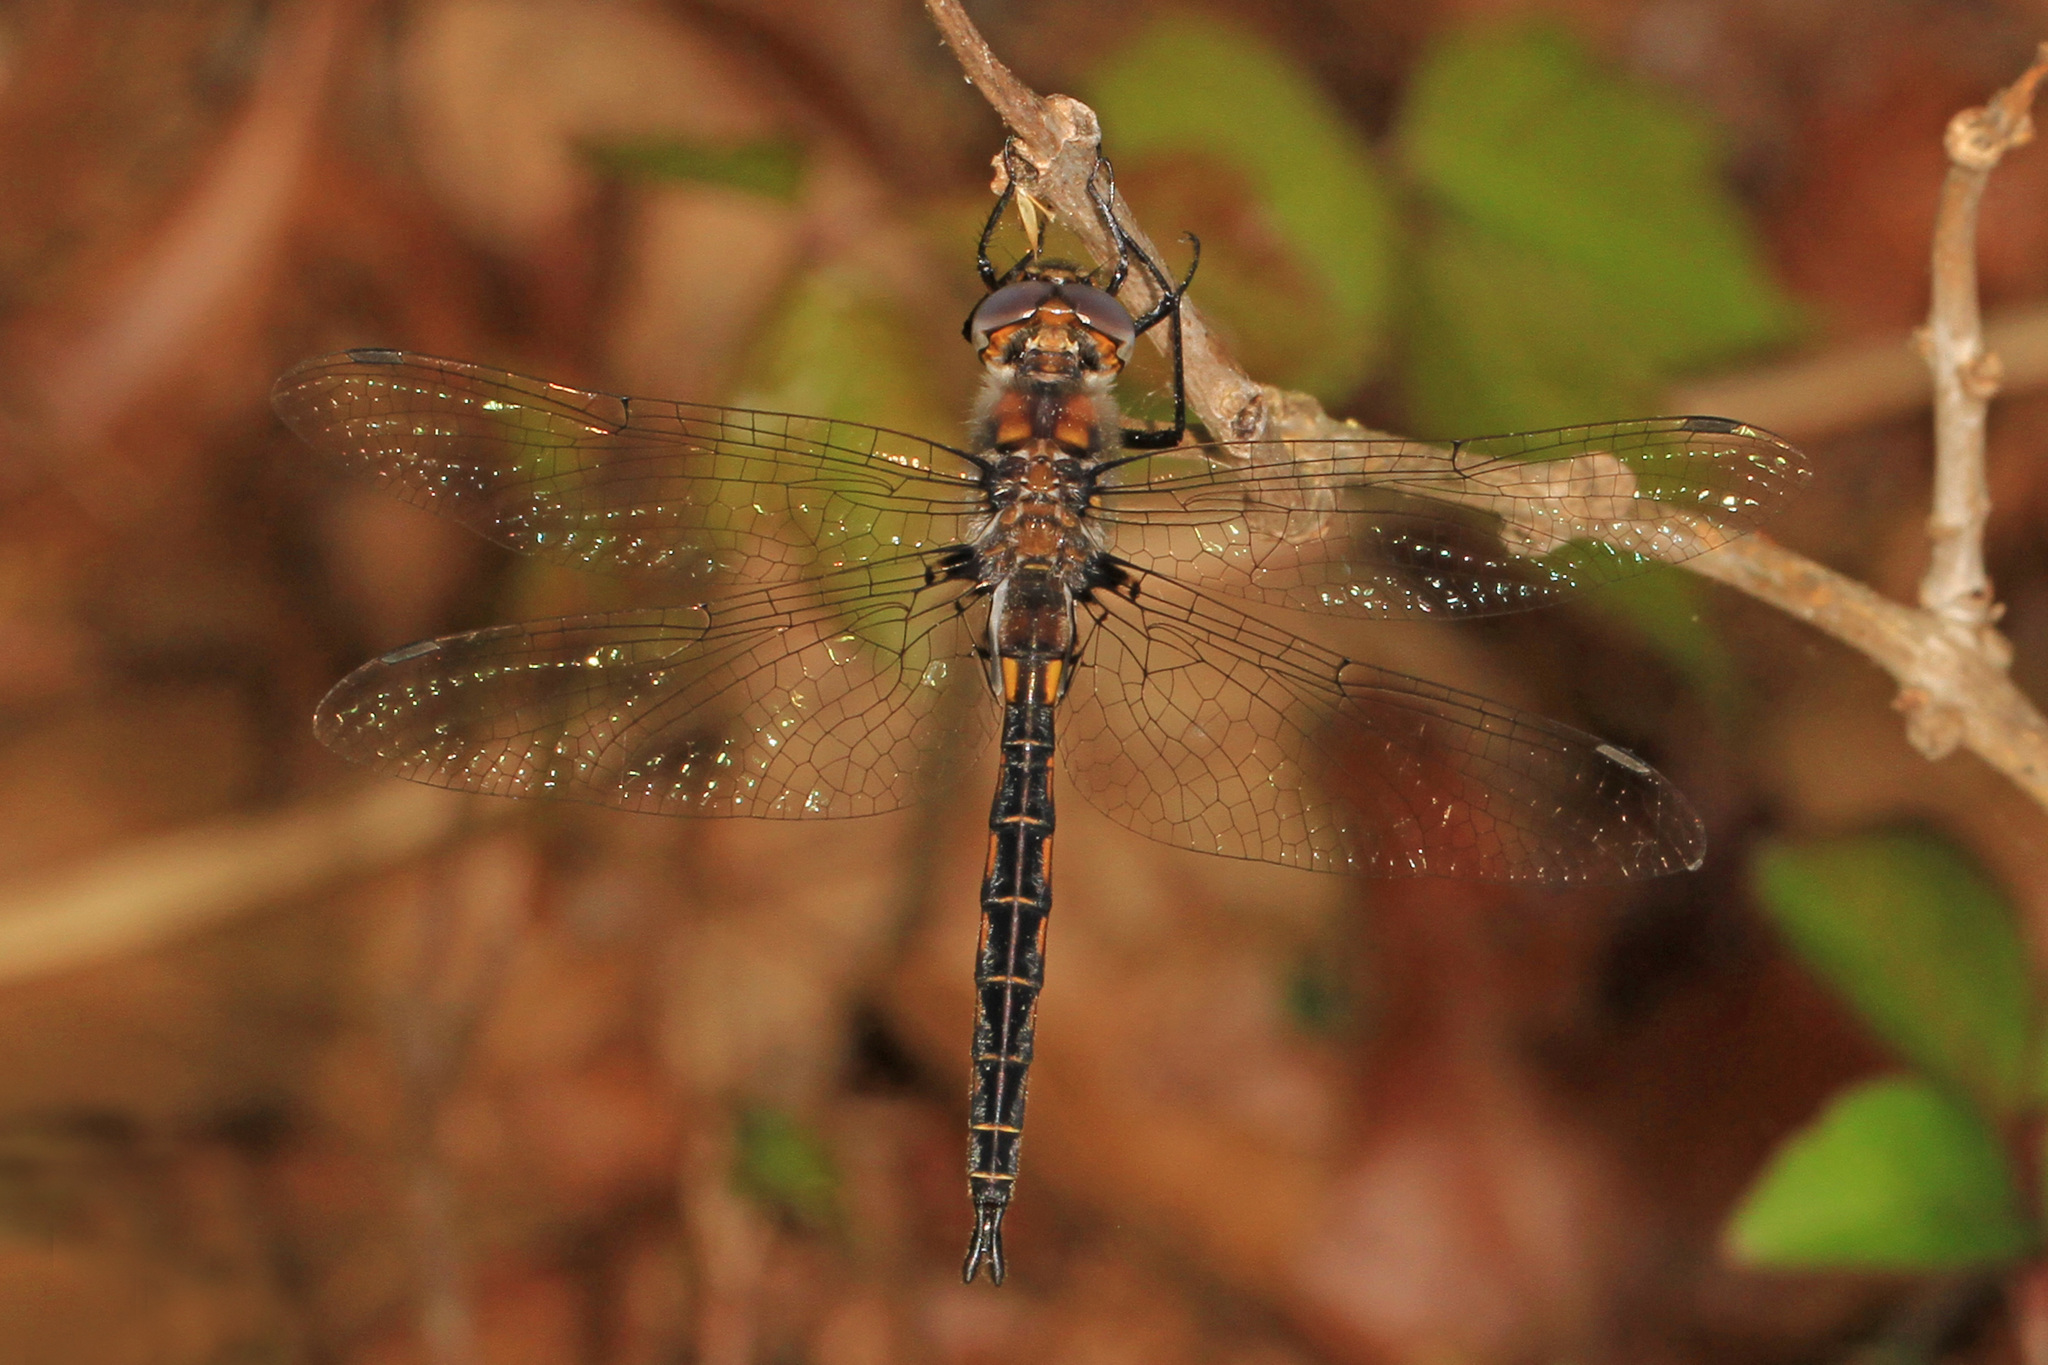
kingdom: Animalia
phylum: Arthropoda
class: Insecta
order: Odonata
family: Corduliidae
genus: Epitheca
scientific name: Epitheca cynosura
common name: Common baskettail
